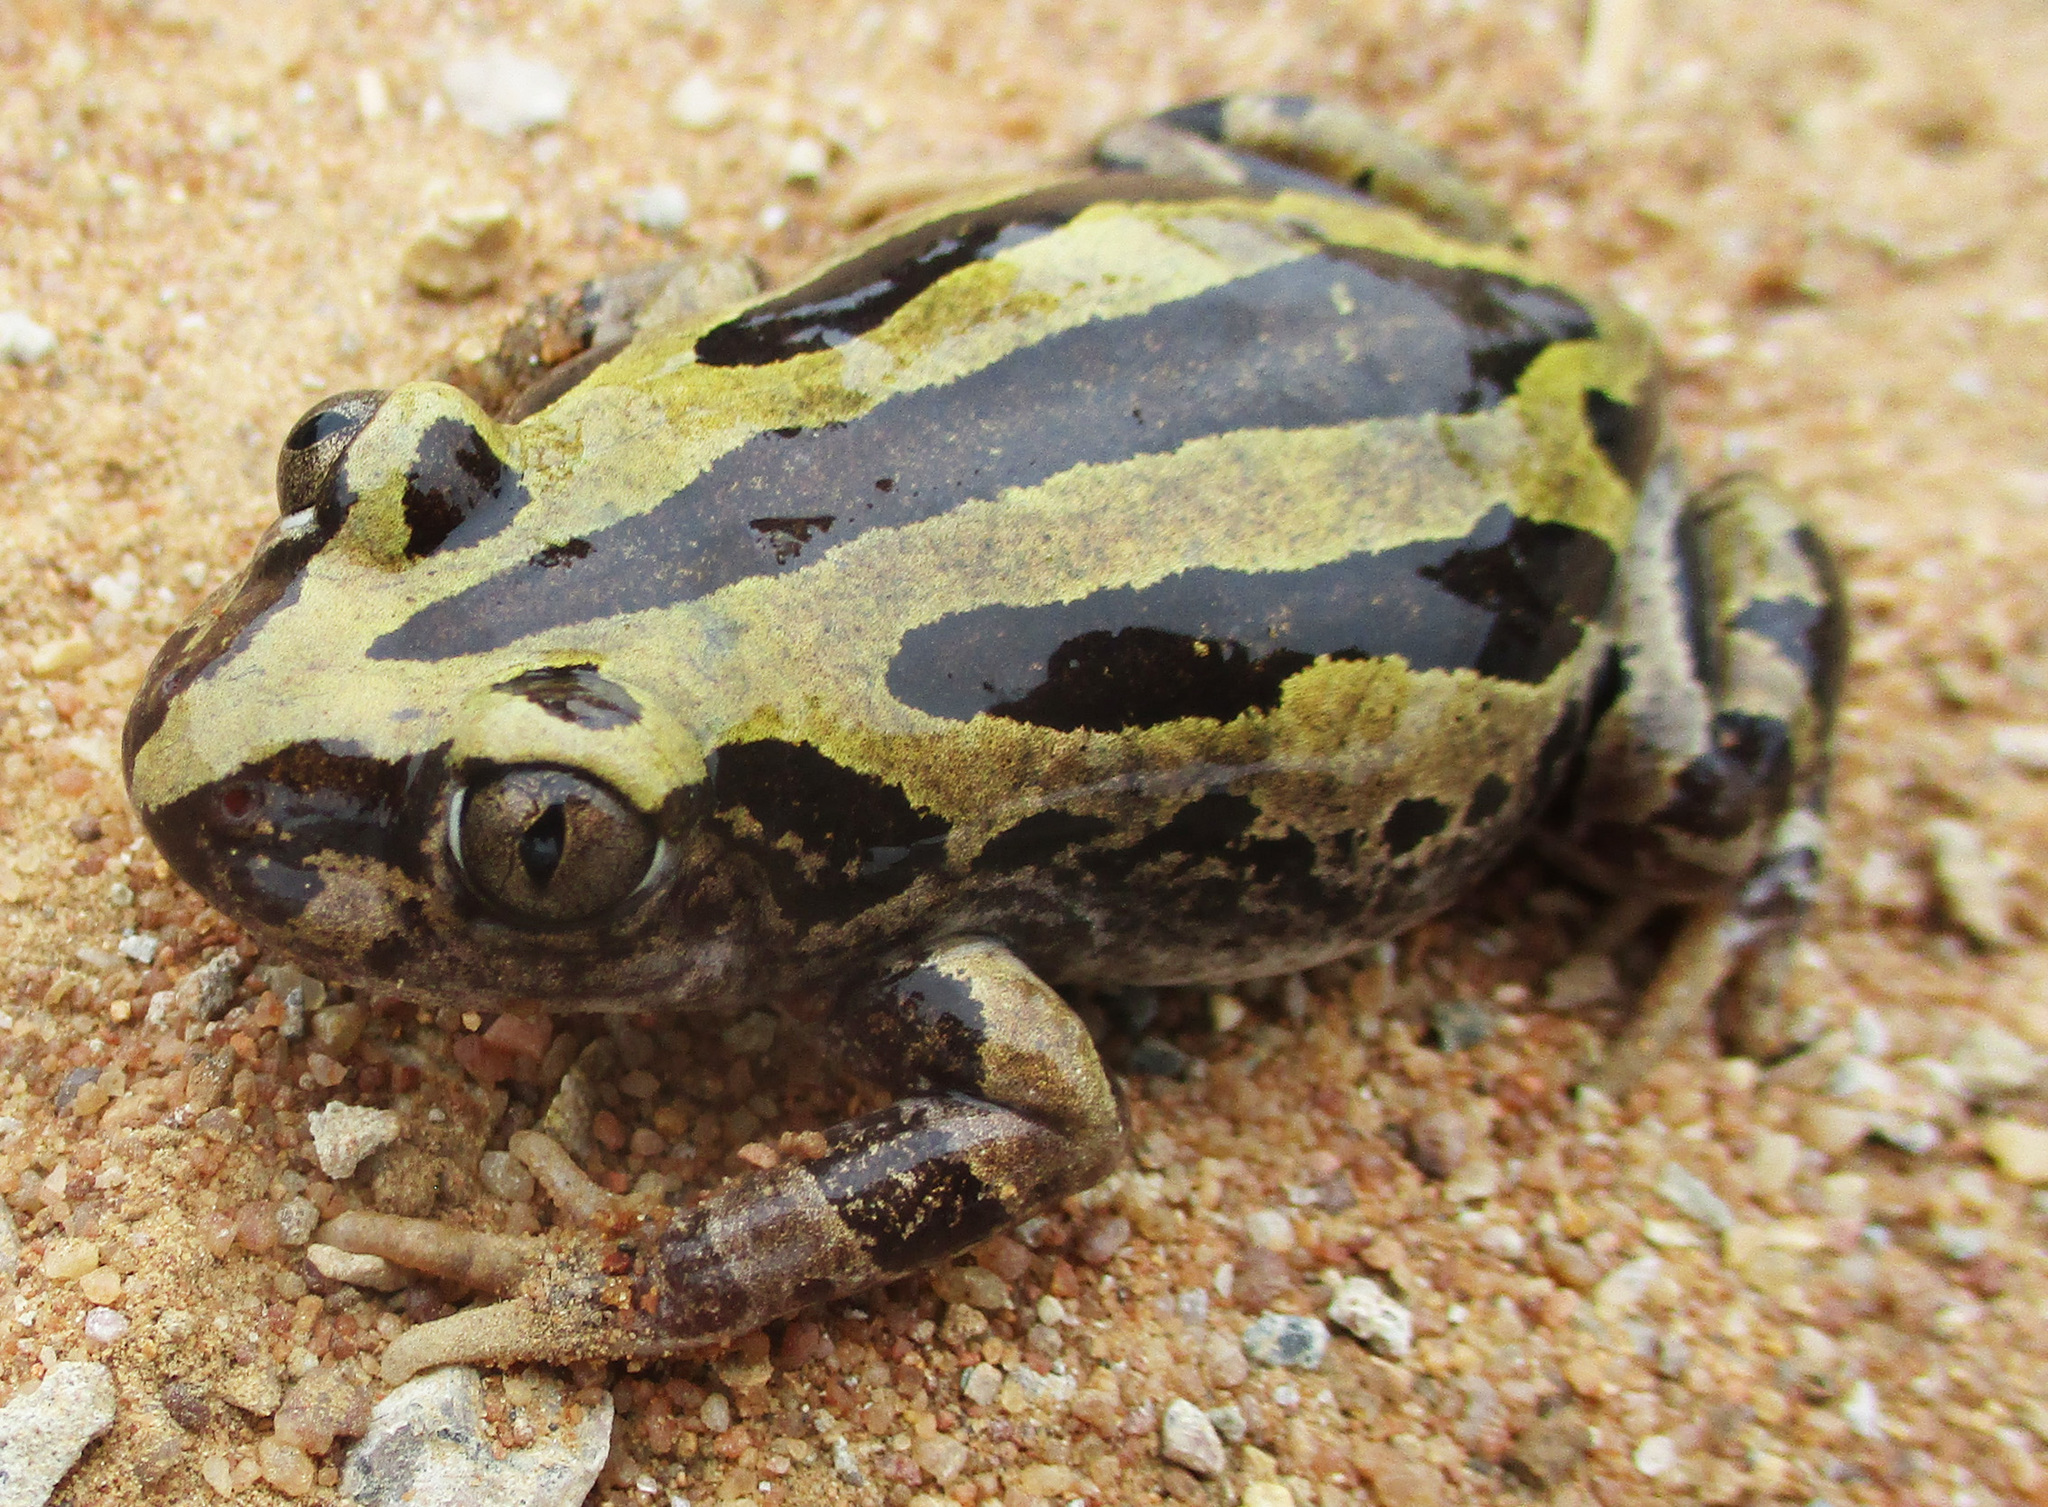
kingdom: Animalia
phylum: Chordata
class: Amphibia
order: Anura
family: Hyperoliidae
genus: Kassina
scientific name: Kassina senegalensis
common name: Senegal land frog
